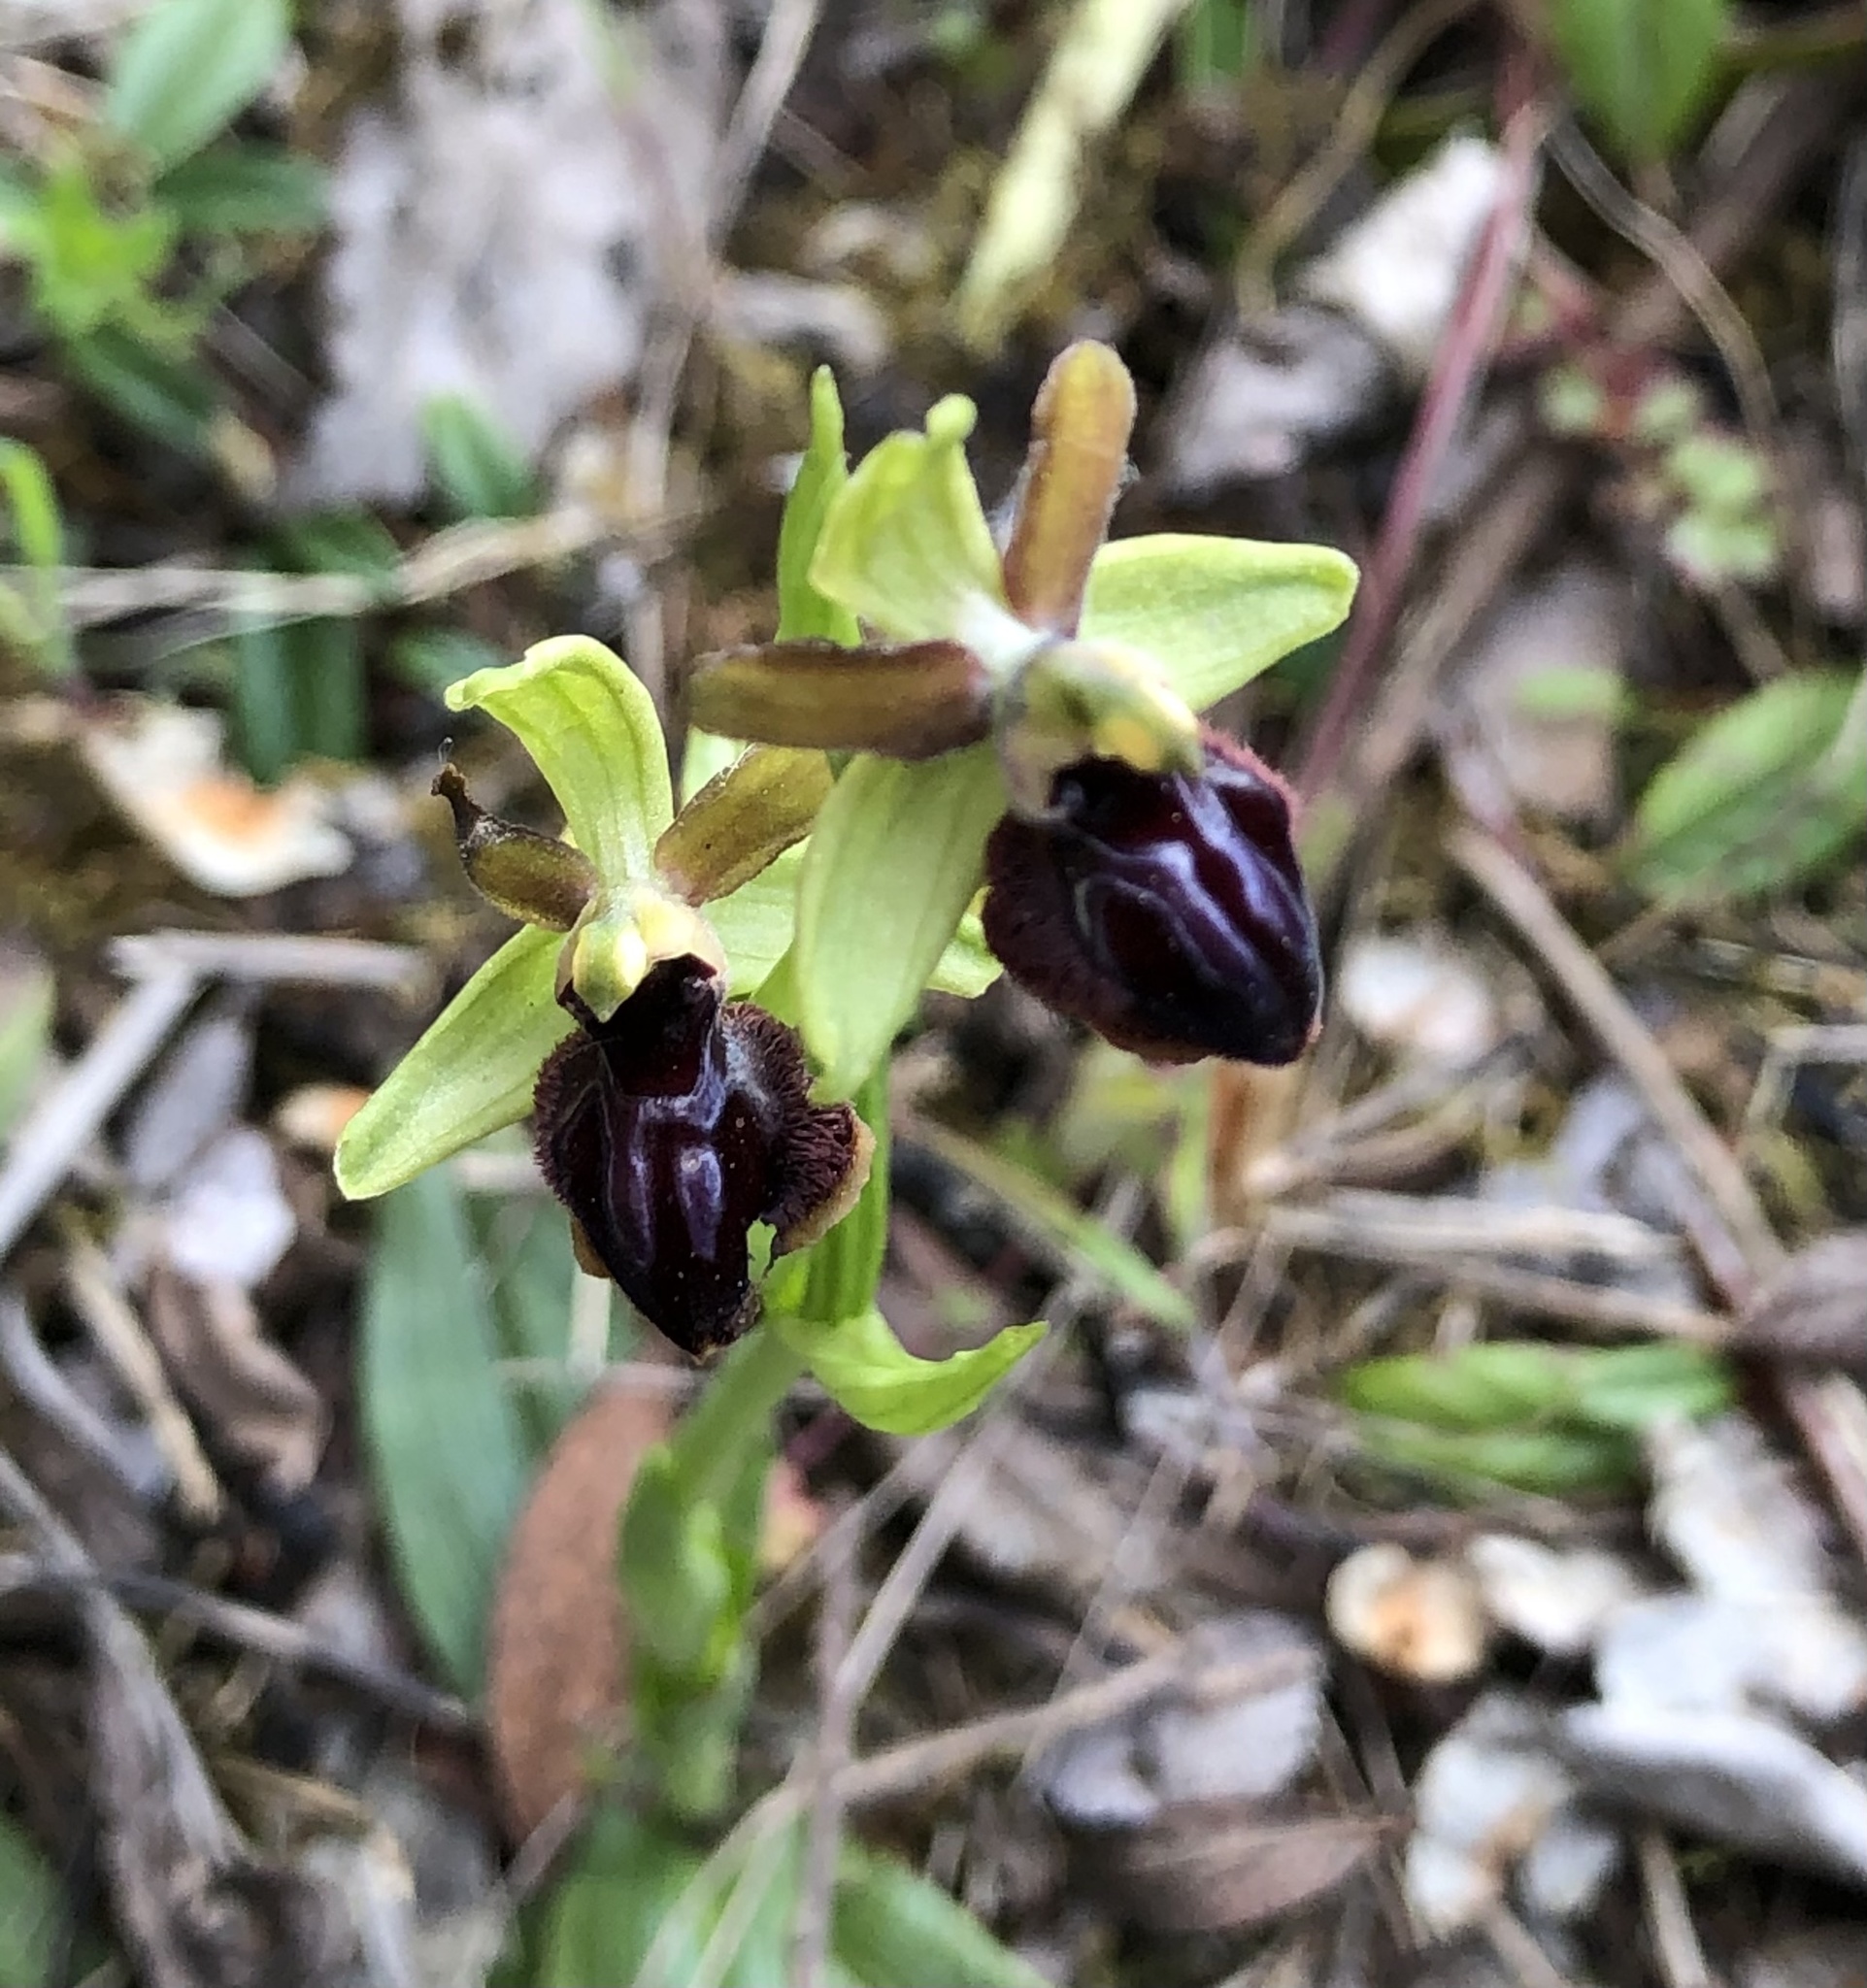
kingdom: Plantae
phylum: Tracheophyta
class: Liliopsida
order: Asparagales
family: Orchidaceae
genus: Ophrys
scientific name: Ophrys sphegodes
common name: Early spider-orchid
